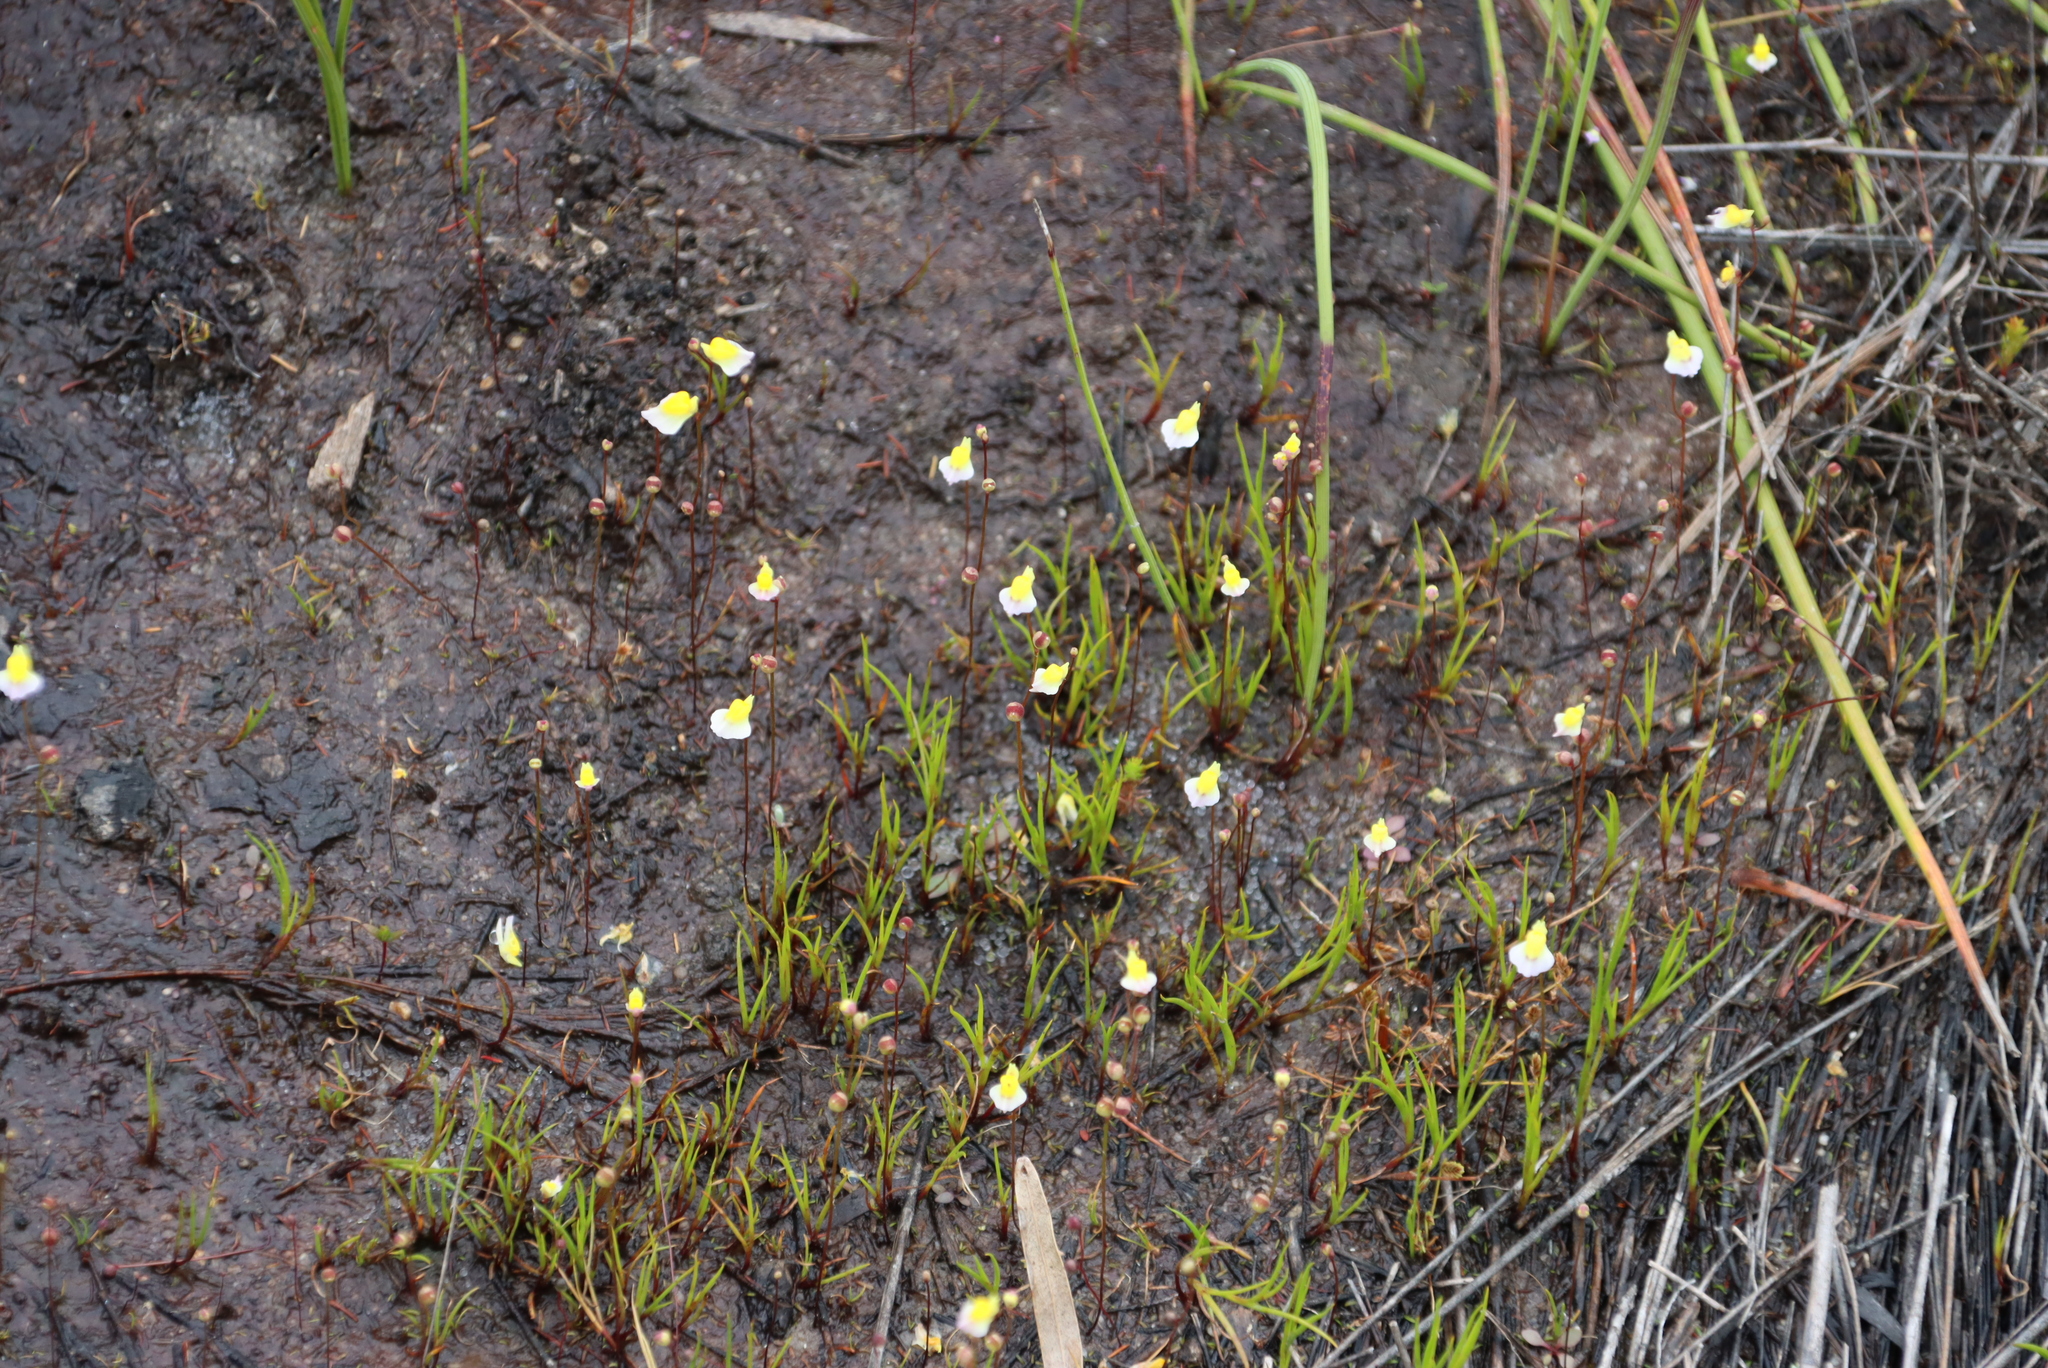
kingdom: Plantae
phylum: Tracheophyta
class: Magnoliopsida
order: Lamiales
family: Lentibulariaceae
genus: Utricularia
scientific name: Utricularia bisquamata
